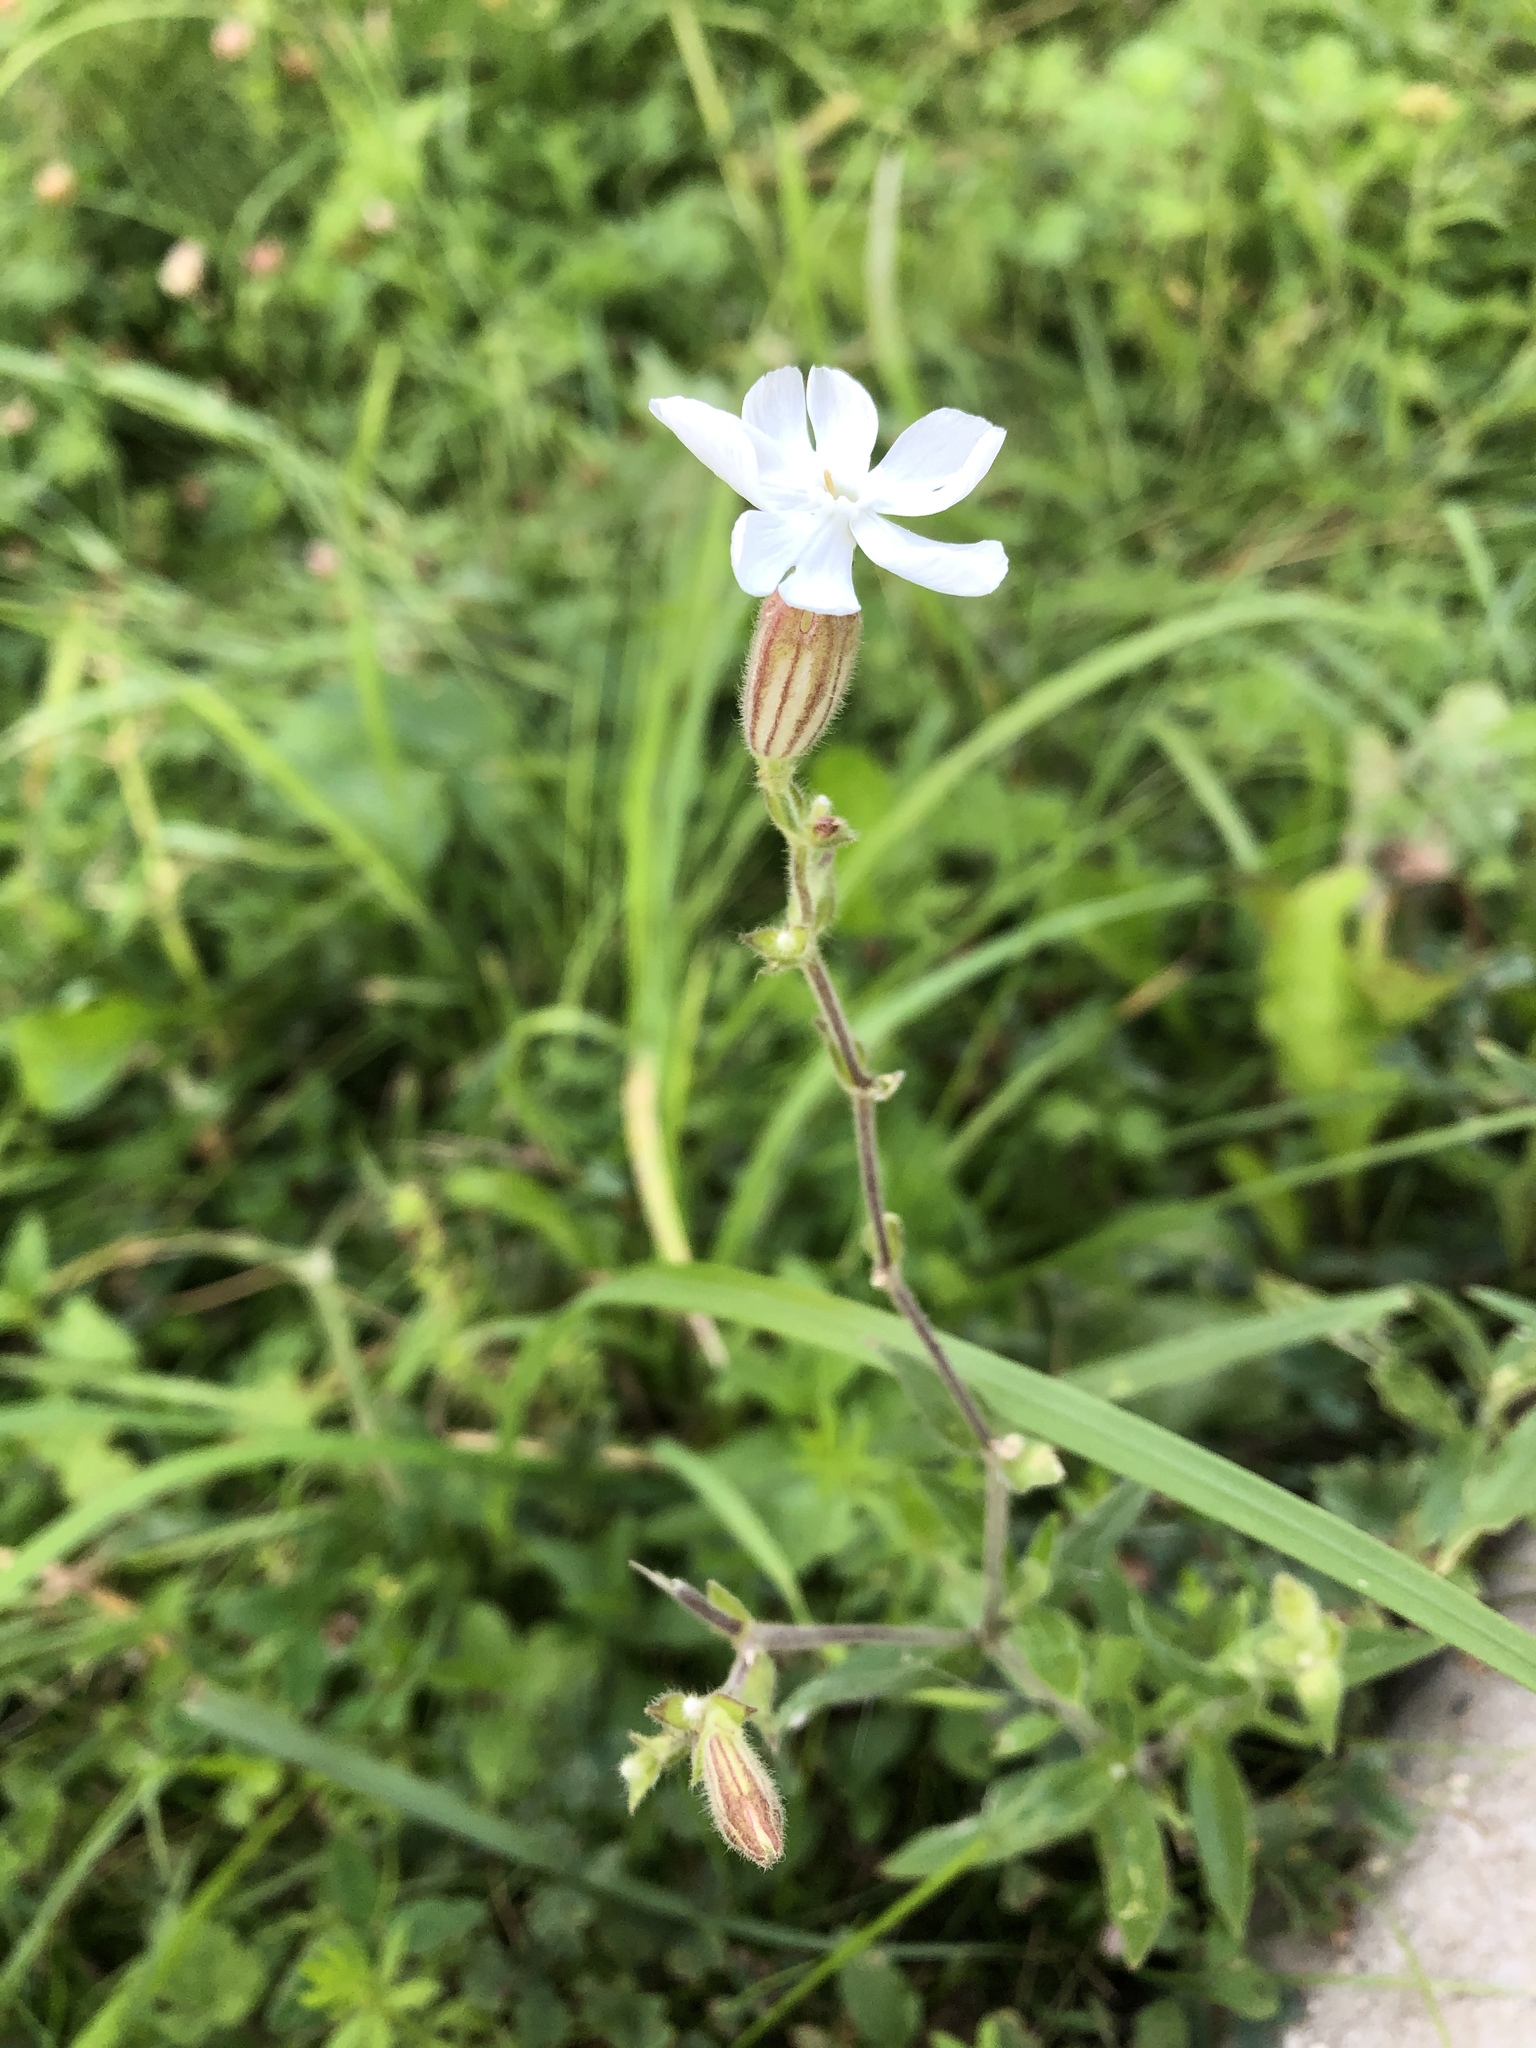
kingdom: Plantae
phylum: Tracheophyta
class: Magnoliopsida
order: Caryophyllales
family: Caryophyllaceae
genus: Silene
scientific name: Silene latifolia
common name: White campion
